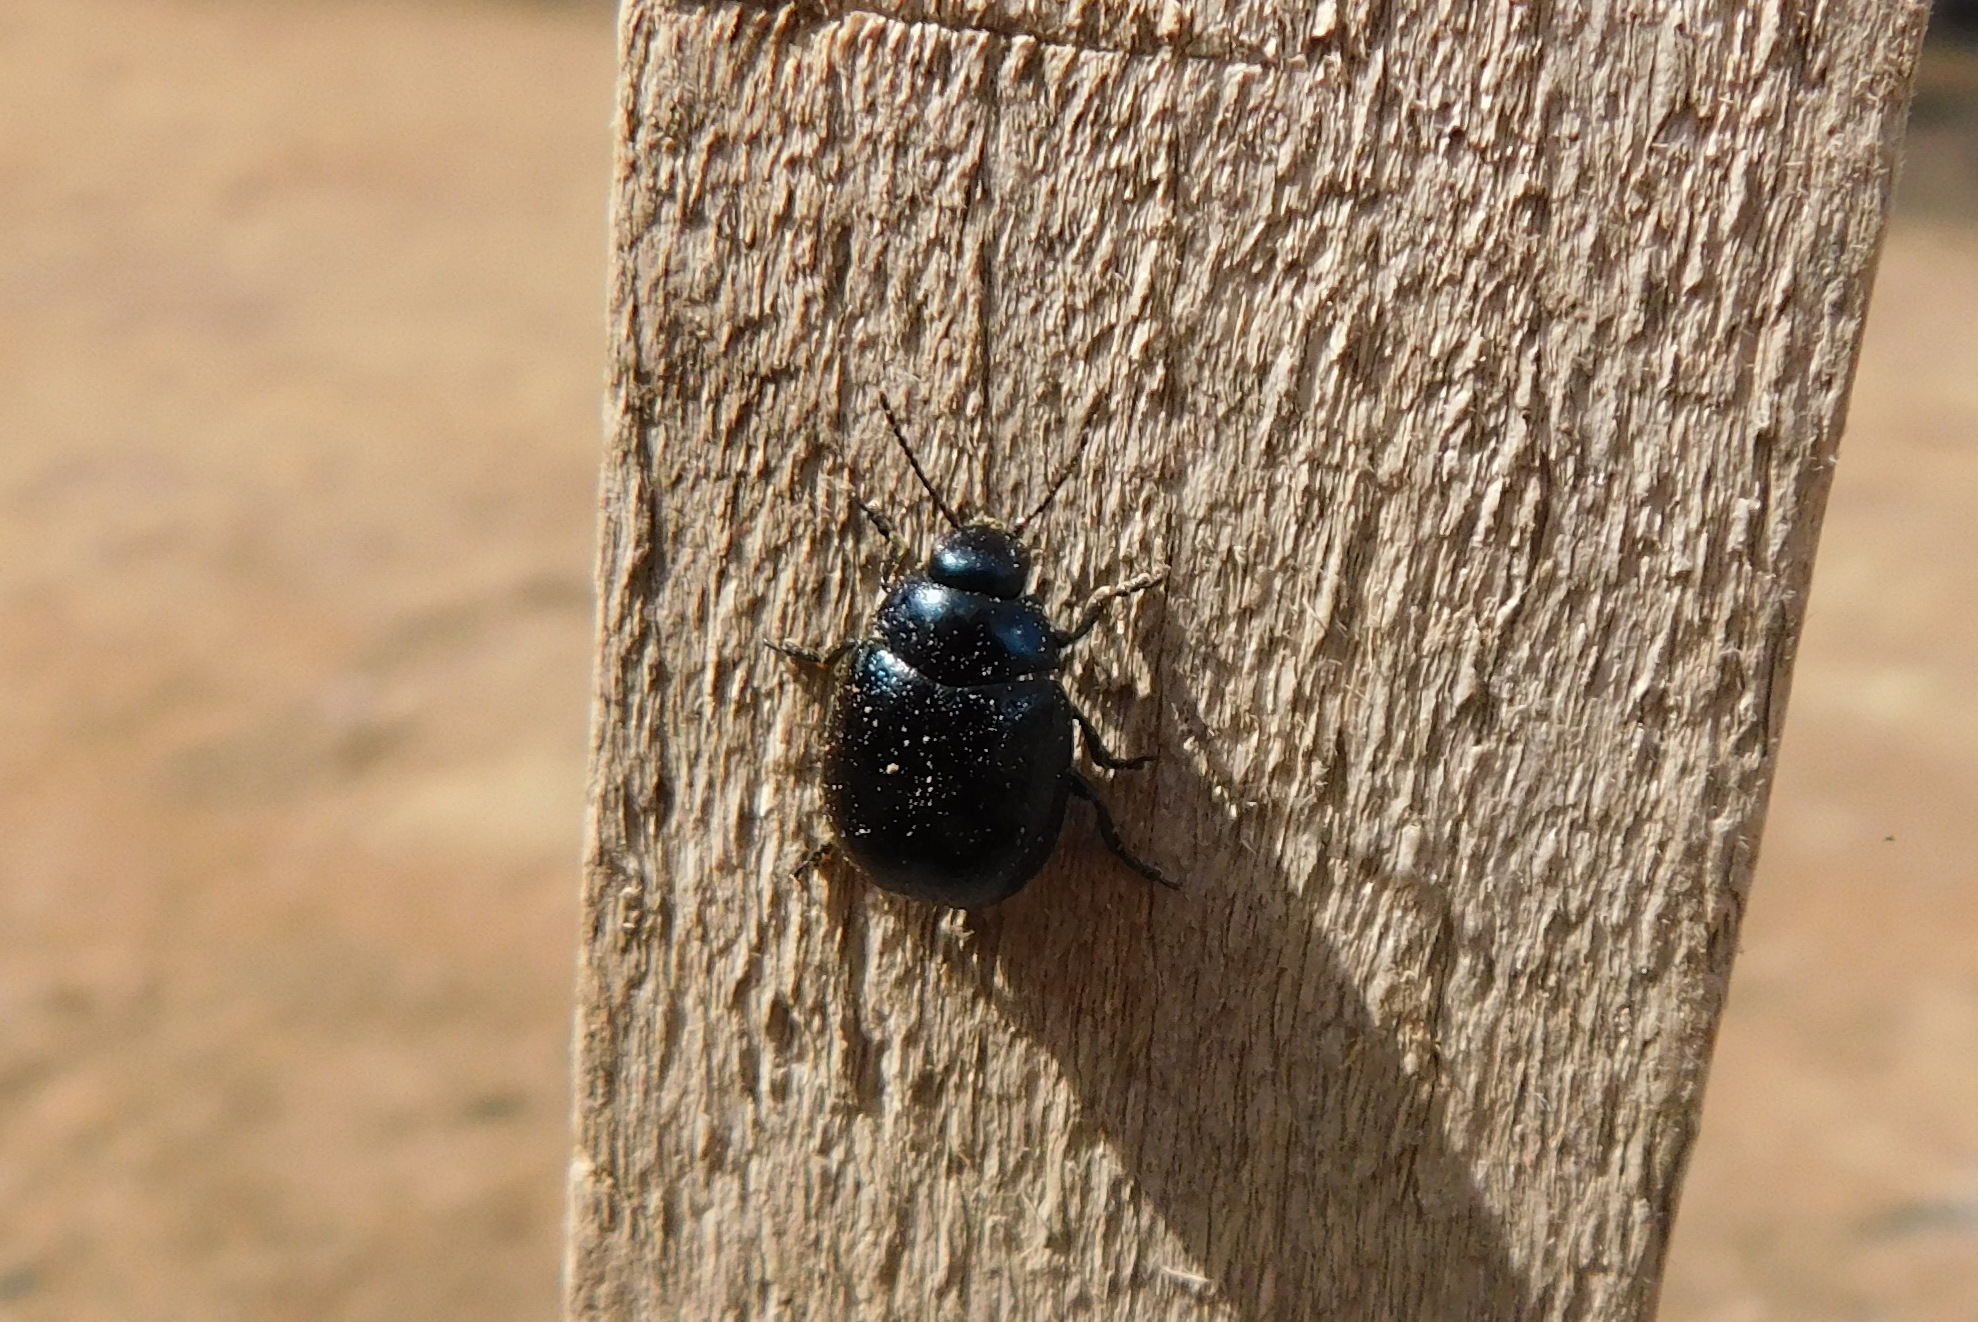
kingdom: Animalia
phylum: Arthropoda
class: Insecta
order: Coleoptera
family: Chrysomelidae
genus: Chrysolina
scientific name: Chrysolina haemoptera
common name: Plantain leaf beetle
